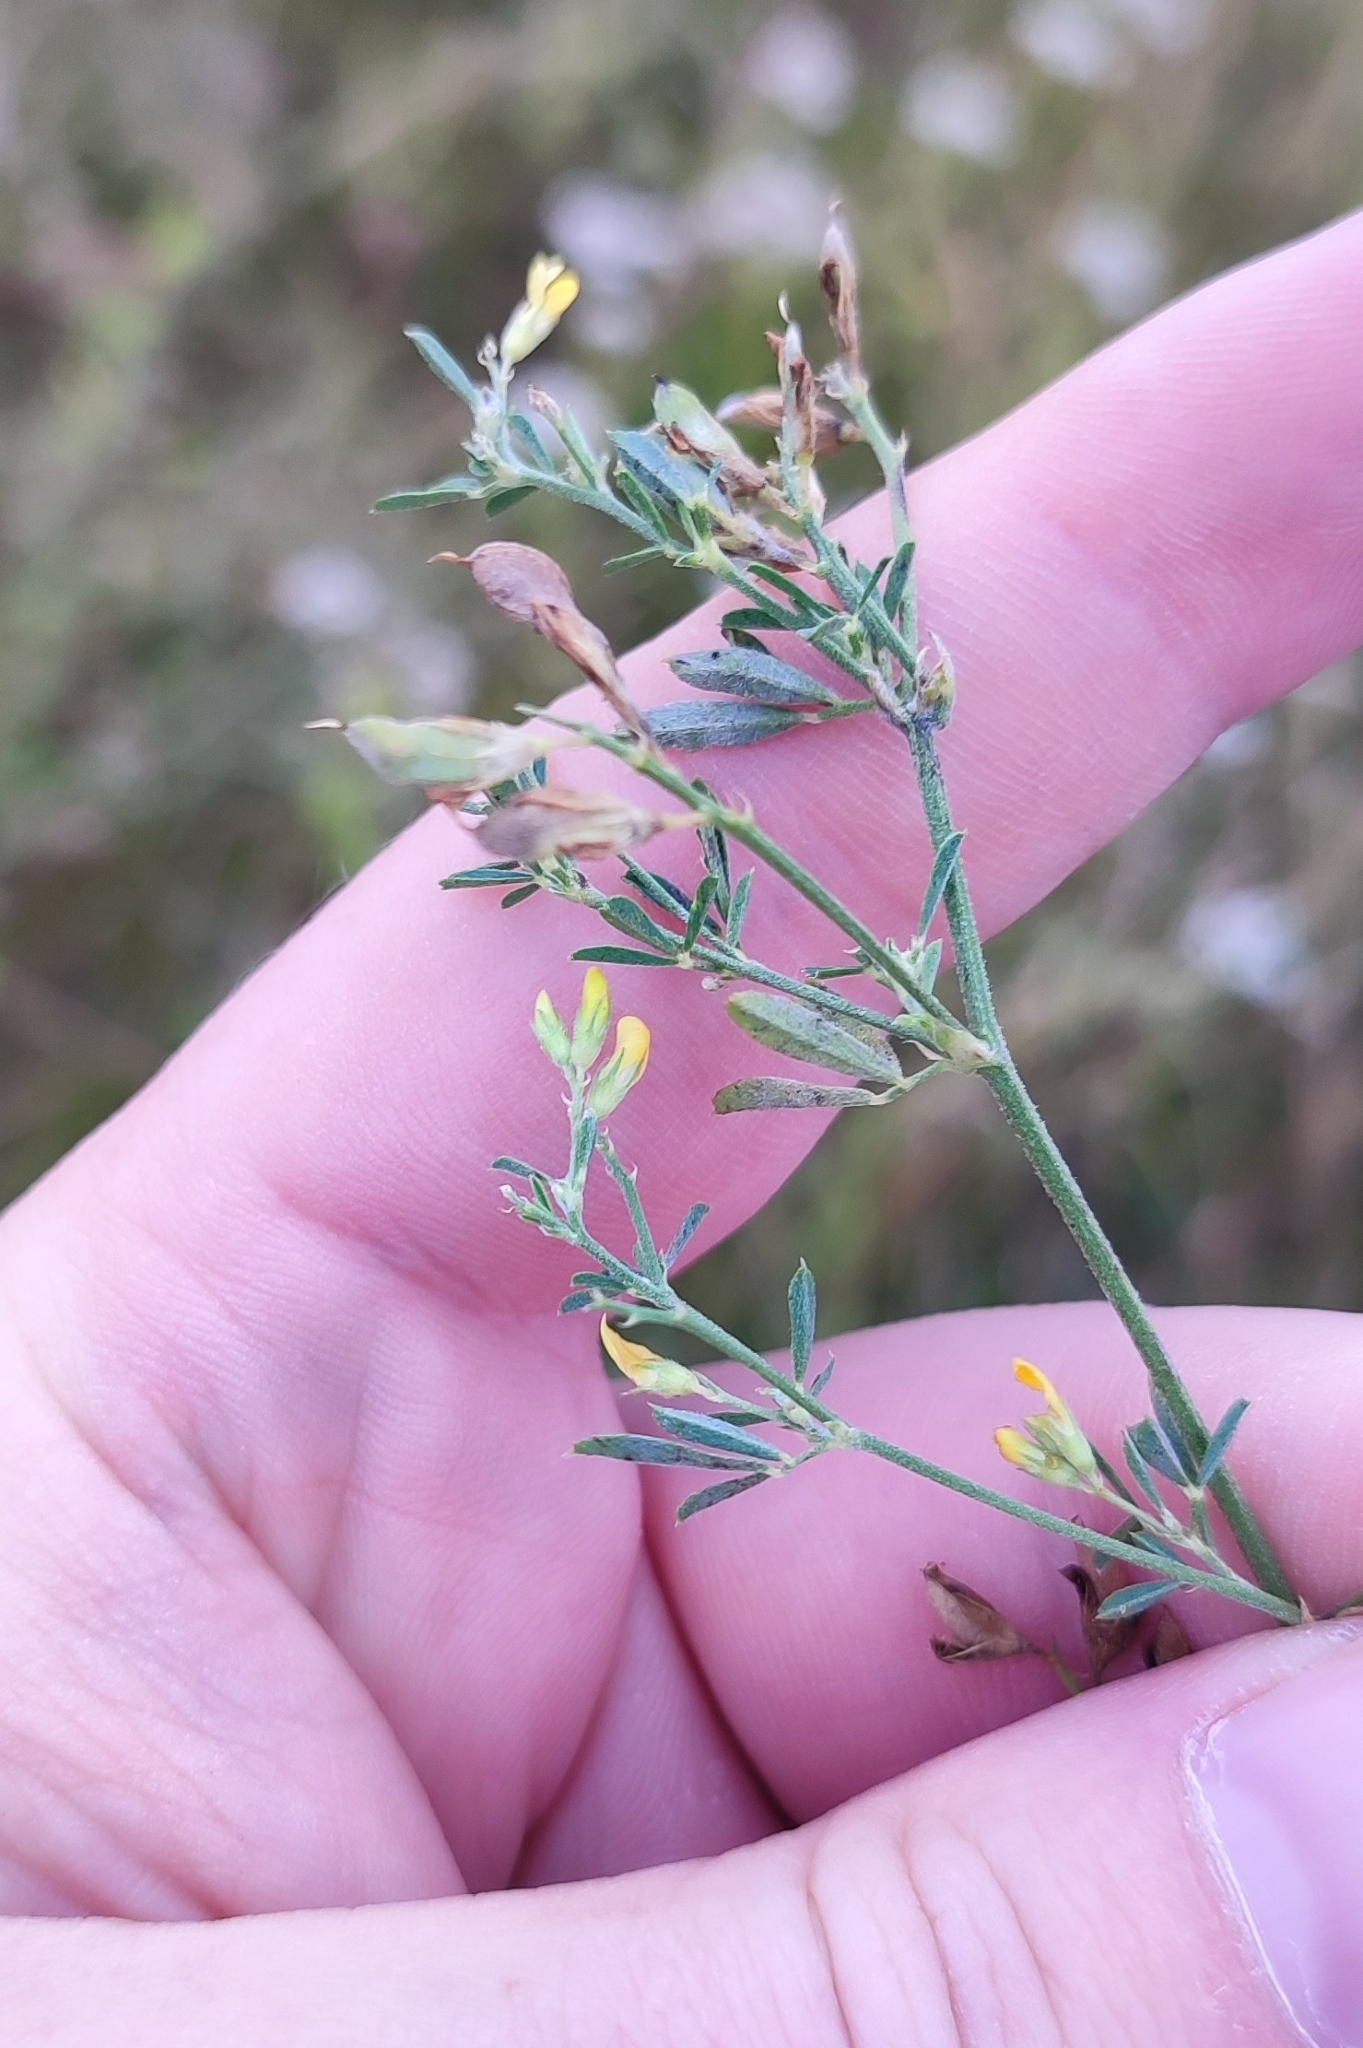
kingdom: Plantae
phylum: Tracheophyta
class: Magnoliopsida
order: Fabales
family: Fabaceae
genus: Medicago
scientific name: Medicago falcata
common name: Sickle medick
